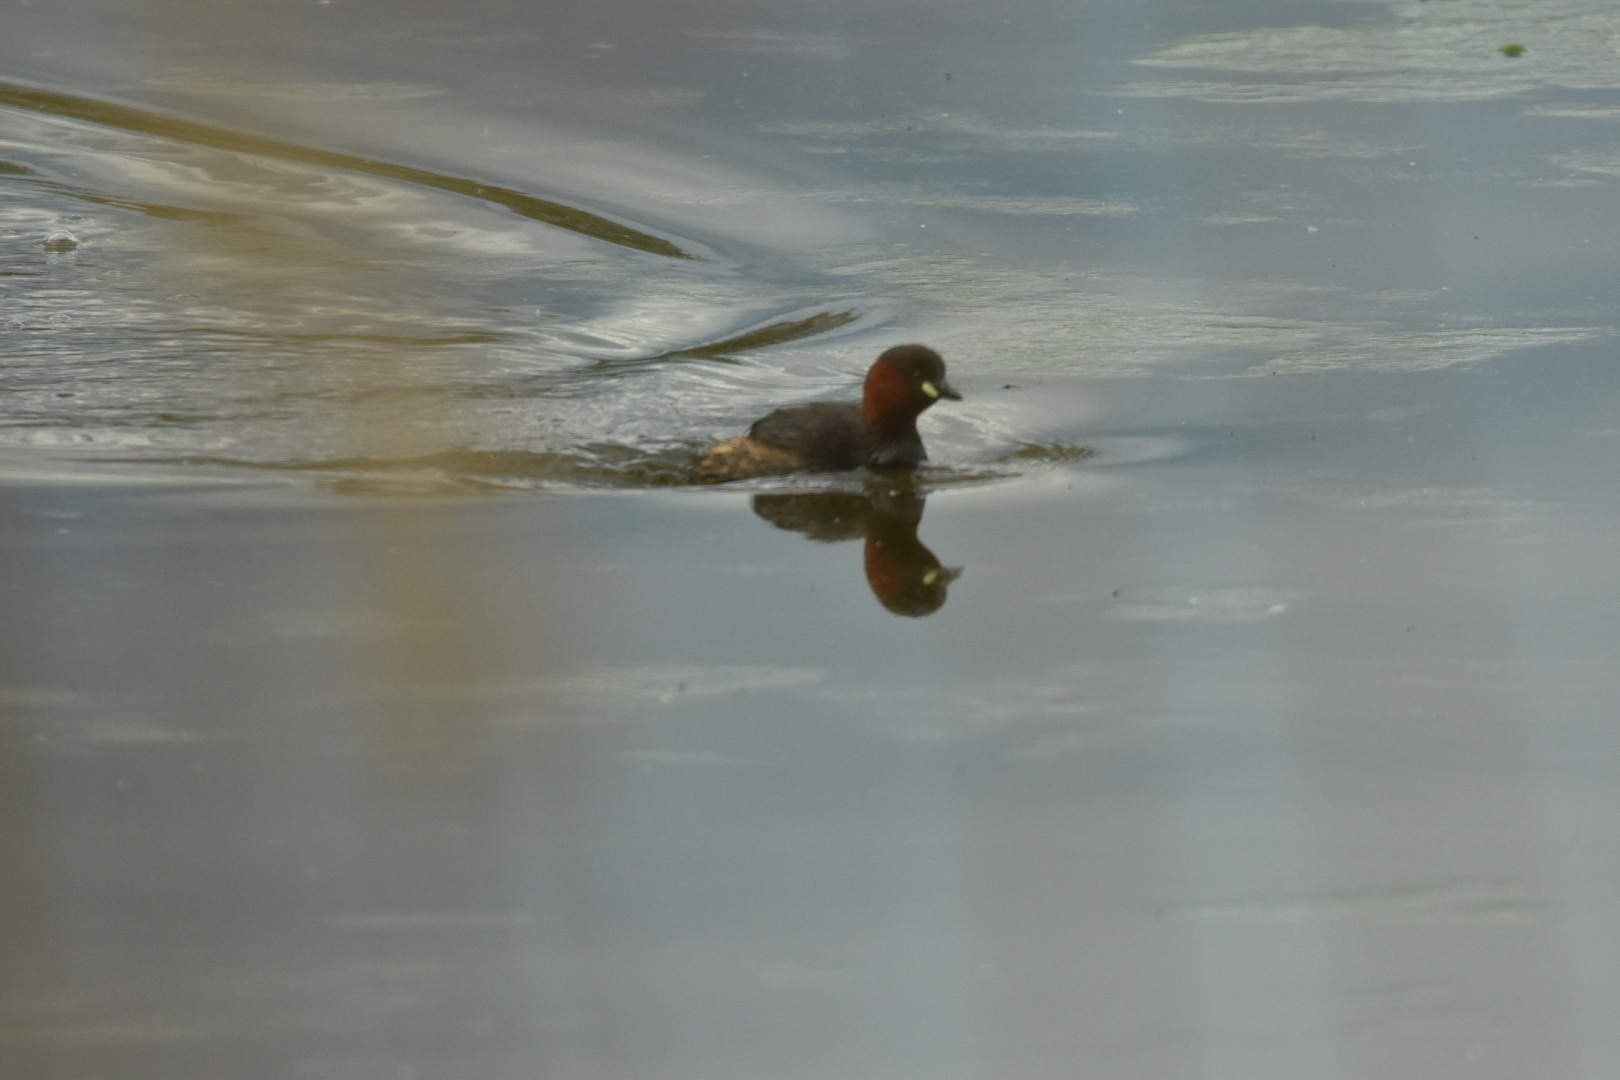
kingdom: Animalia
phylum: Chordata
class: Aves
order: Podicipediformes
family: Podicipedidae
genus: Tachybaptus
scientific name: Tachybaptus ruficollis
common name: Little grebe
